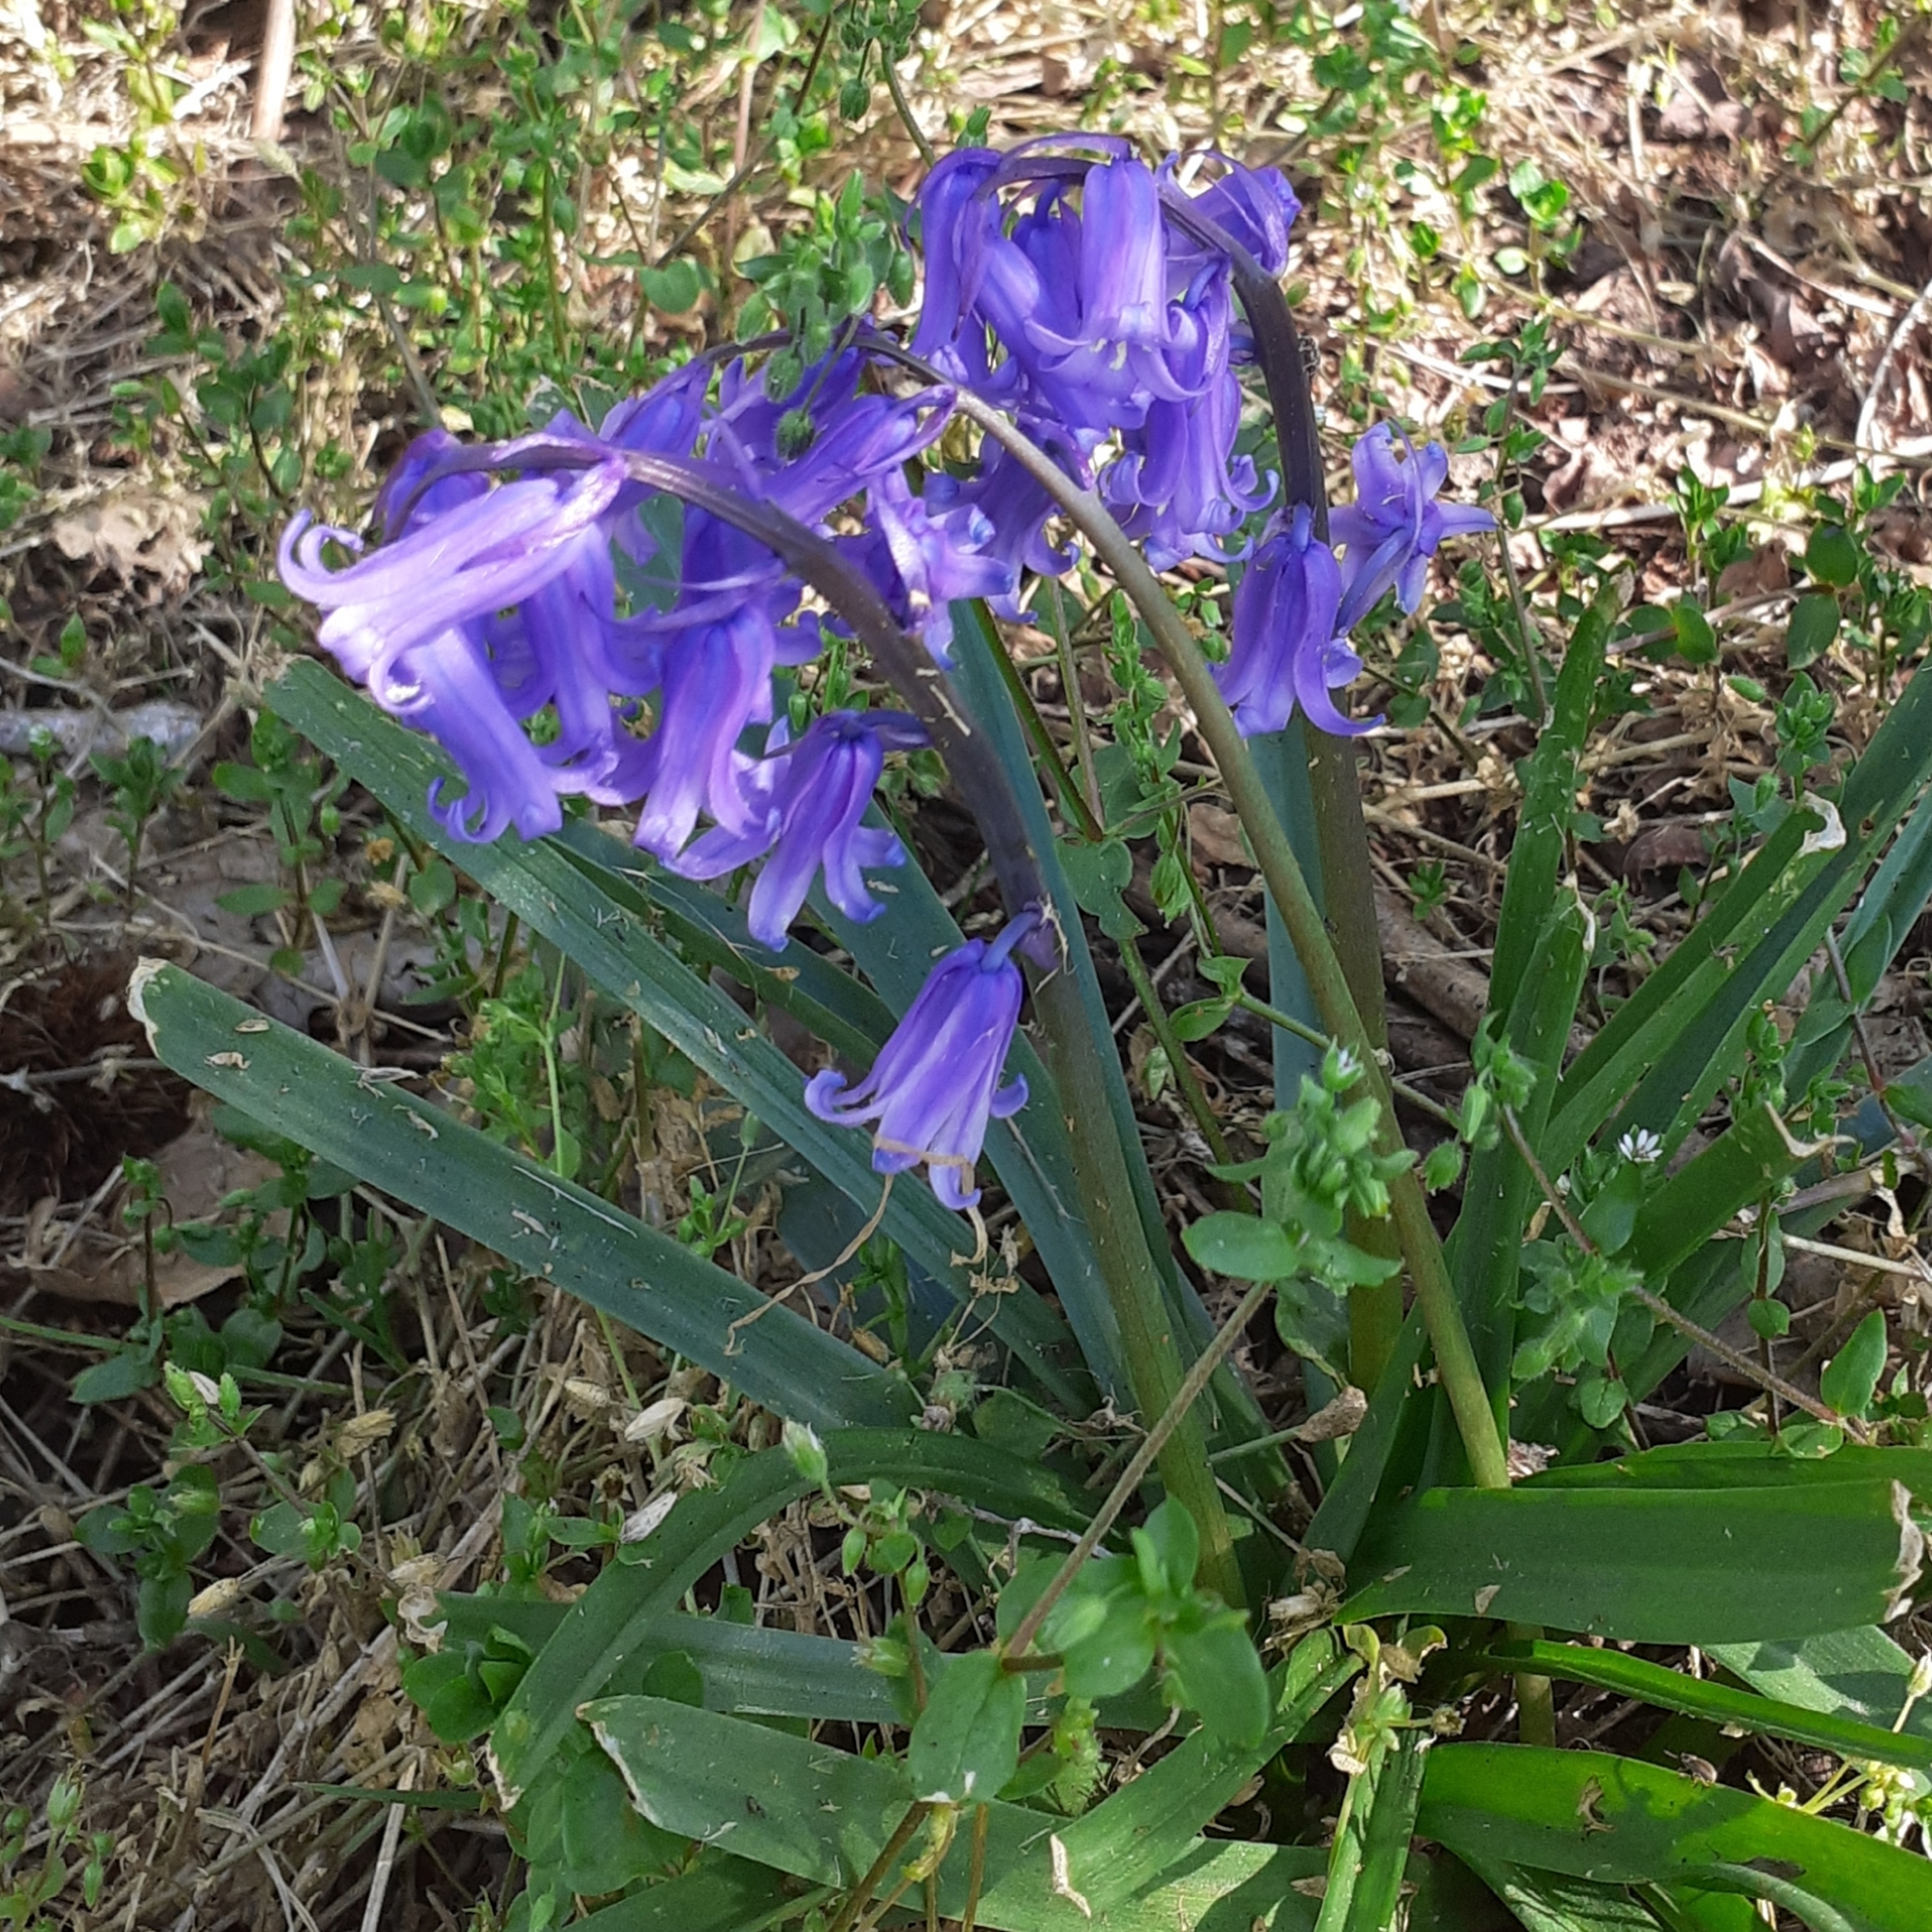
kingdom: Plantae
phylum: Tracheophyta
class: Liliopsida
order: Asparagales
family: Asparagaceae
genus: Hyacinthoides
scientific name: Hyacinthoides non-scripta
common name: Bluebell
